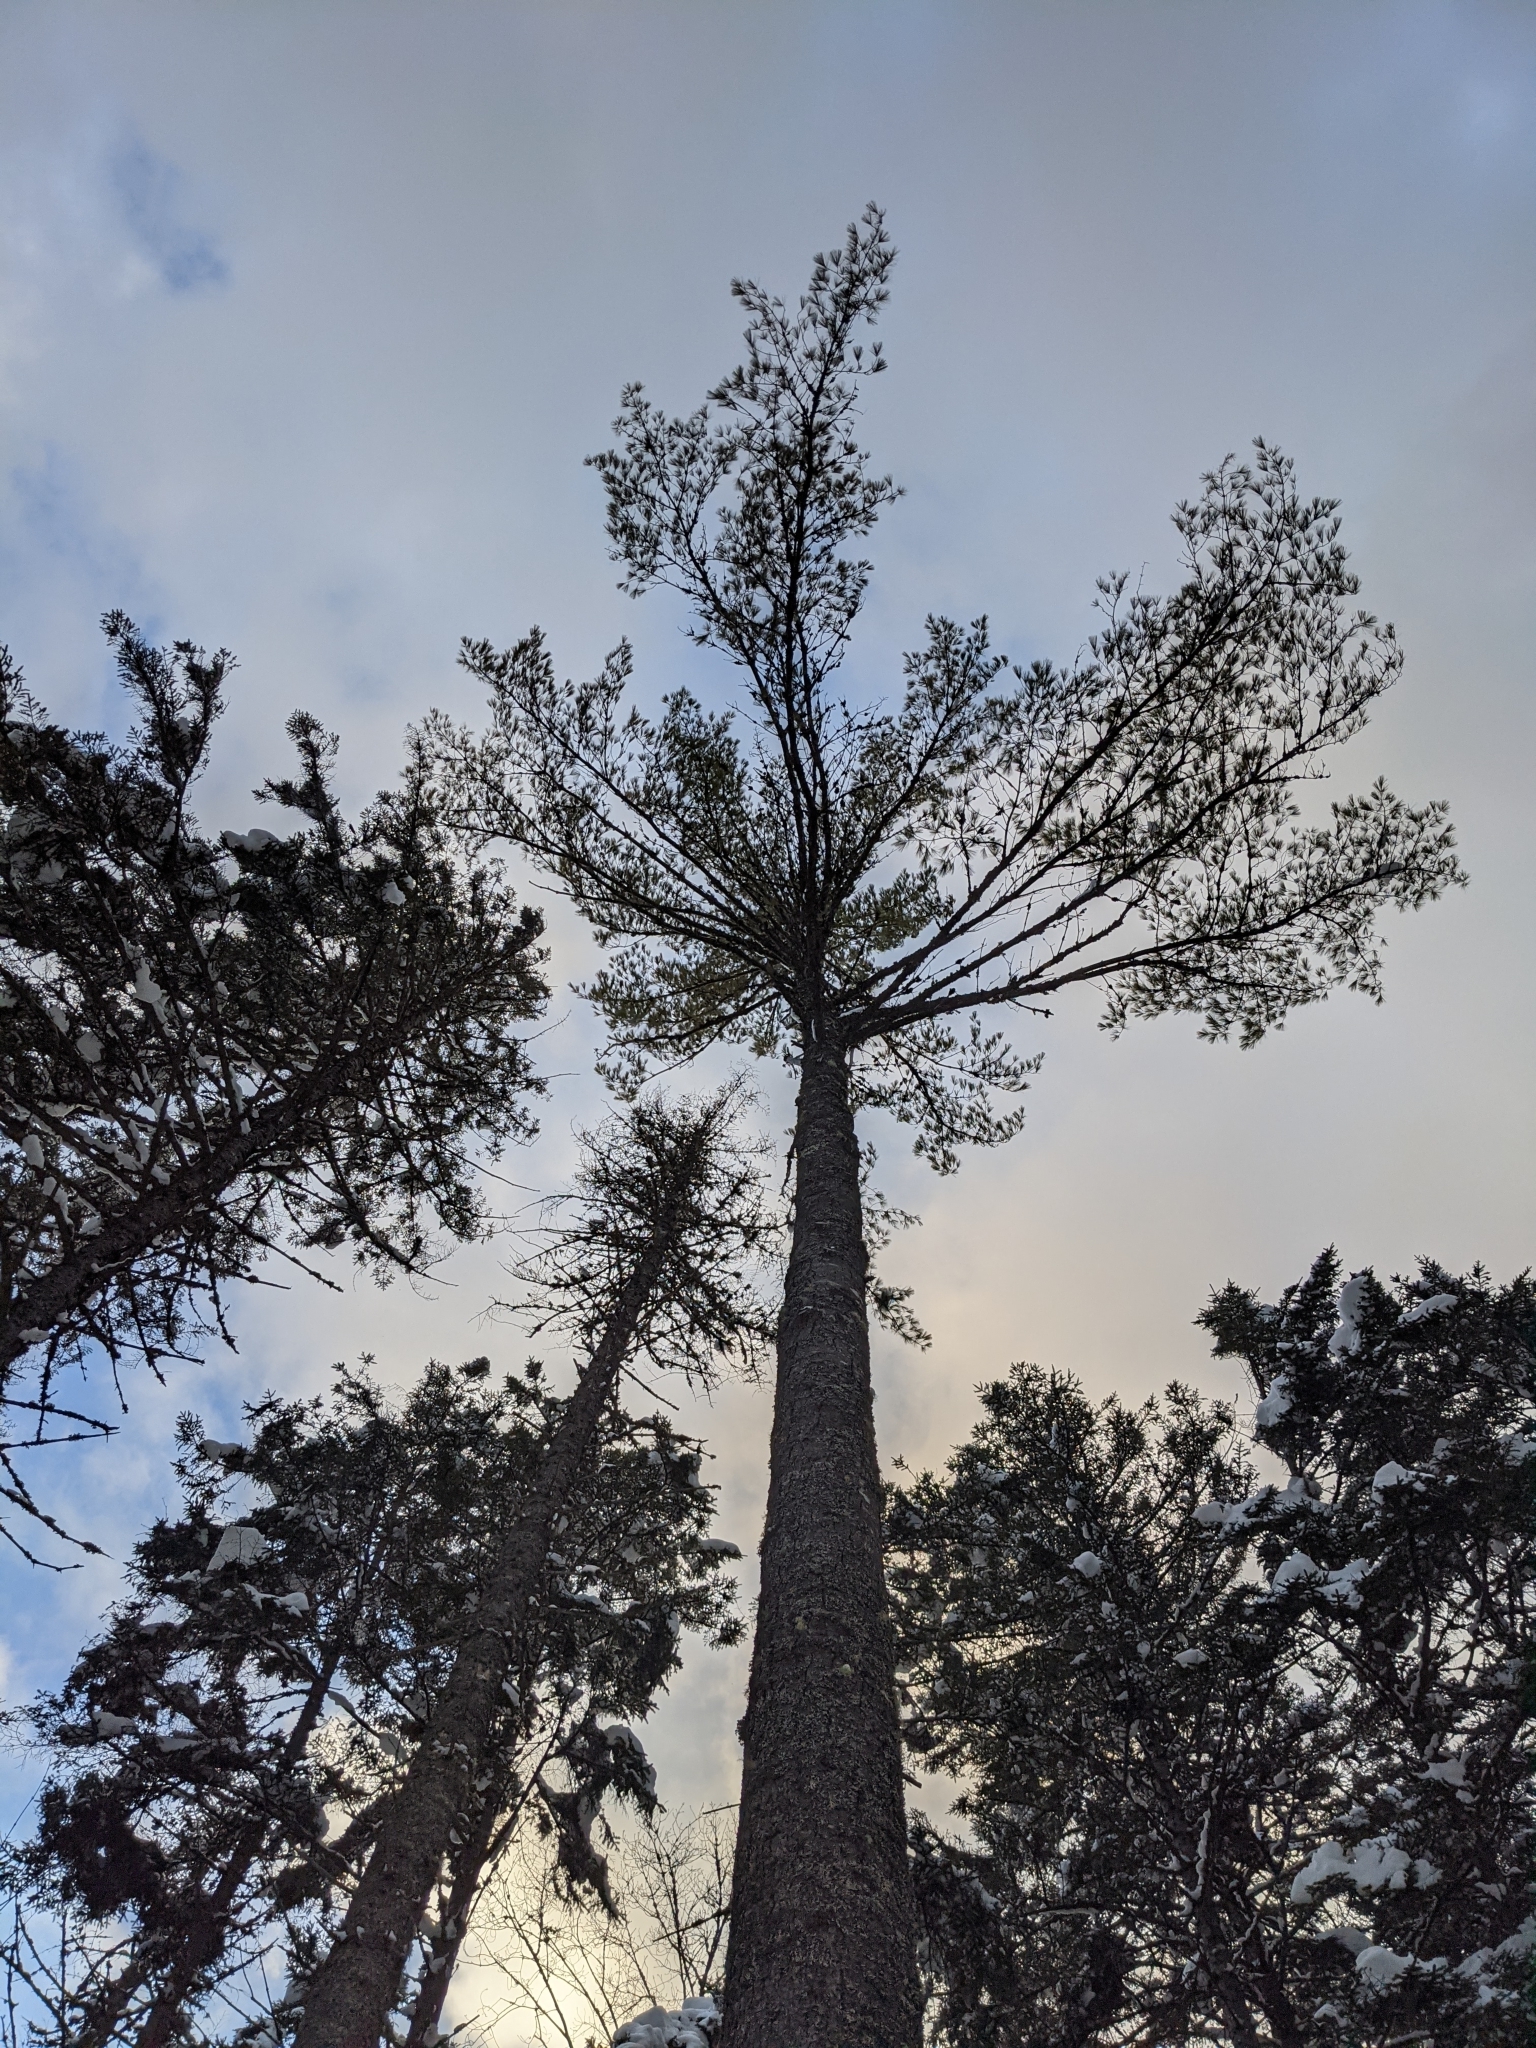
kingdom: Plantae
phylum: Tracheophyta
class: Pinopsida
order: Pinales
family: Pinaceae
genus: Pinus
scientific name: Pinus strobus
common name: Weymouth pine
